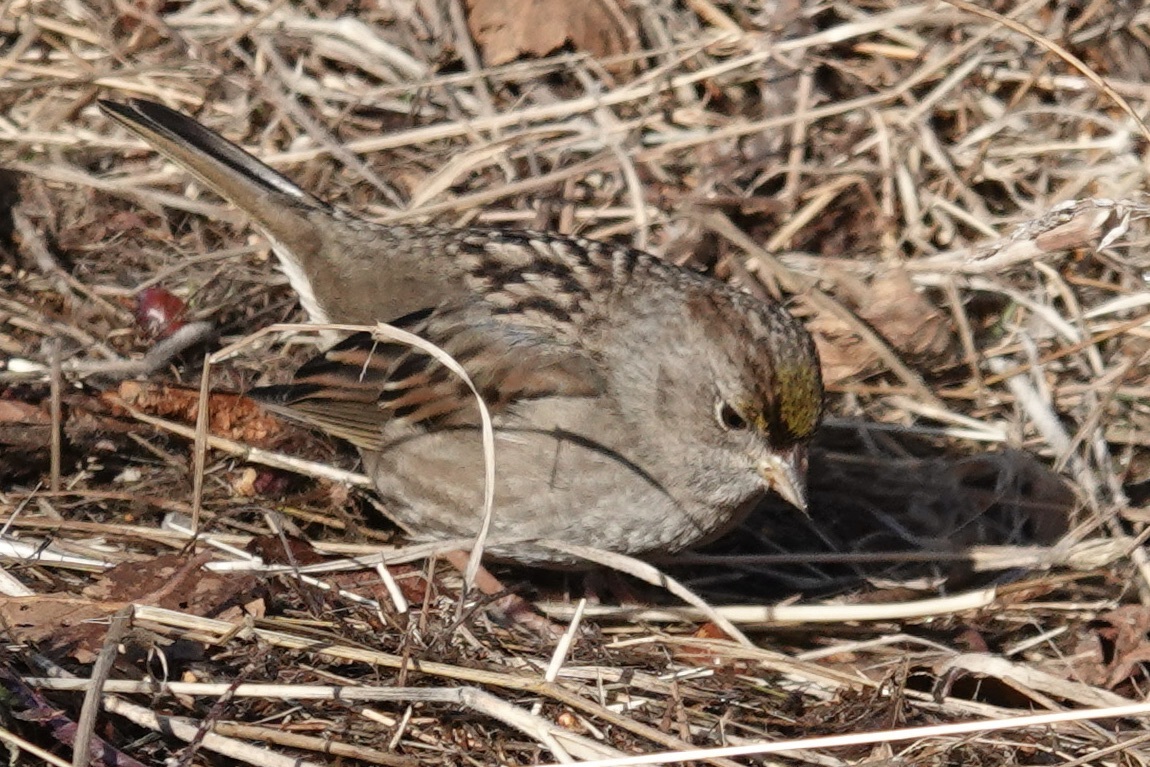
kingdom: Animalia
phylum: Chordata
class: Aves
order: Passeriformes
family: Passerellidae
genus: Zonotrichia
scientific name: Zonotrichia atricapilla
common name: Golden-crowned sparrow
